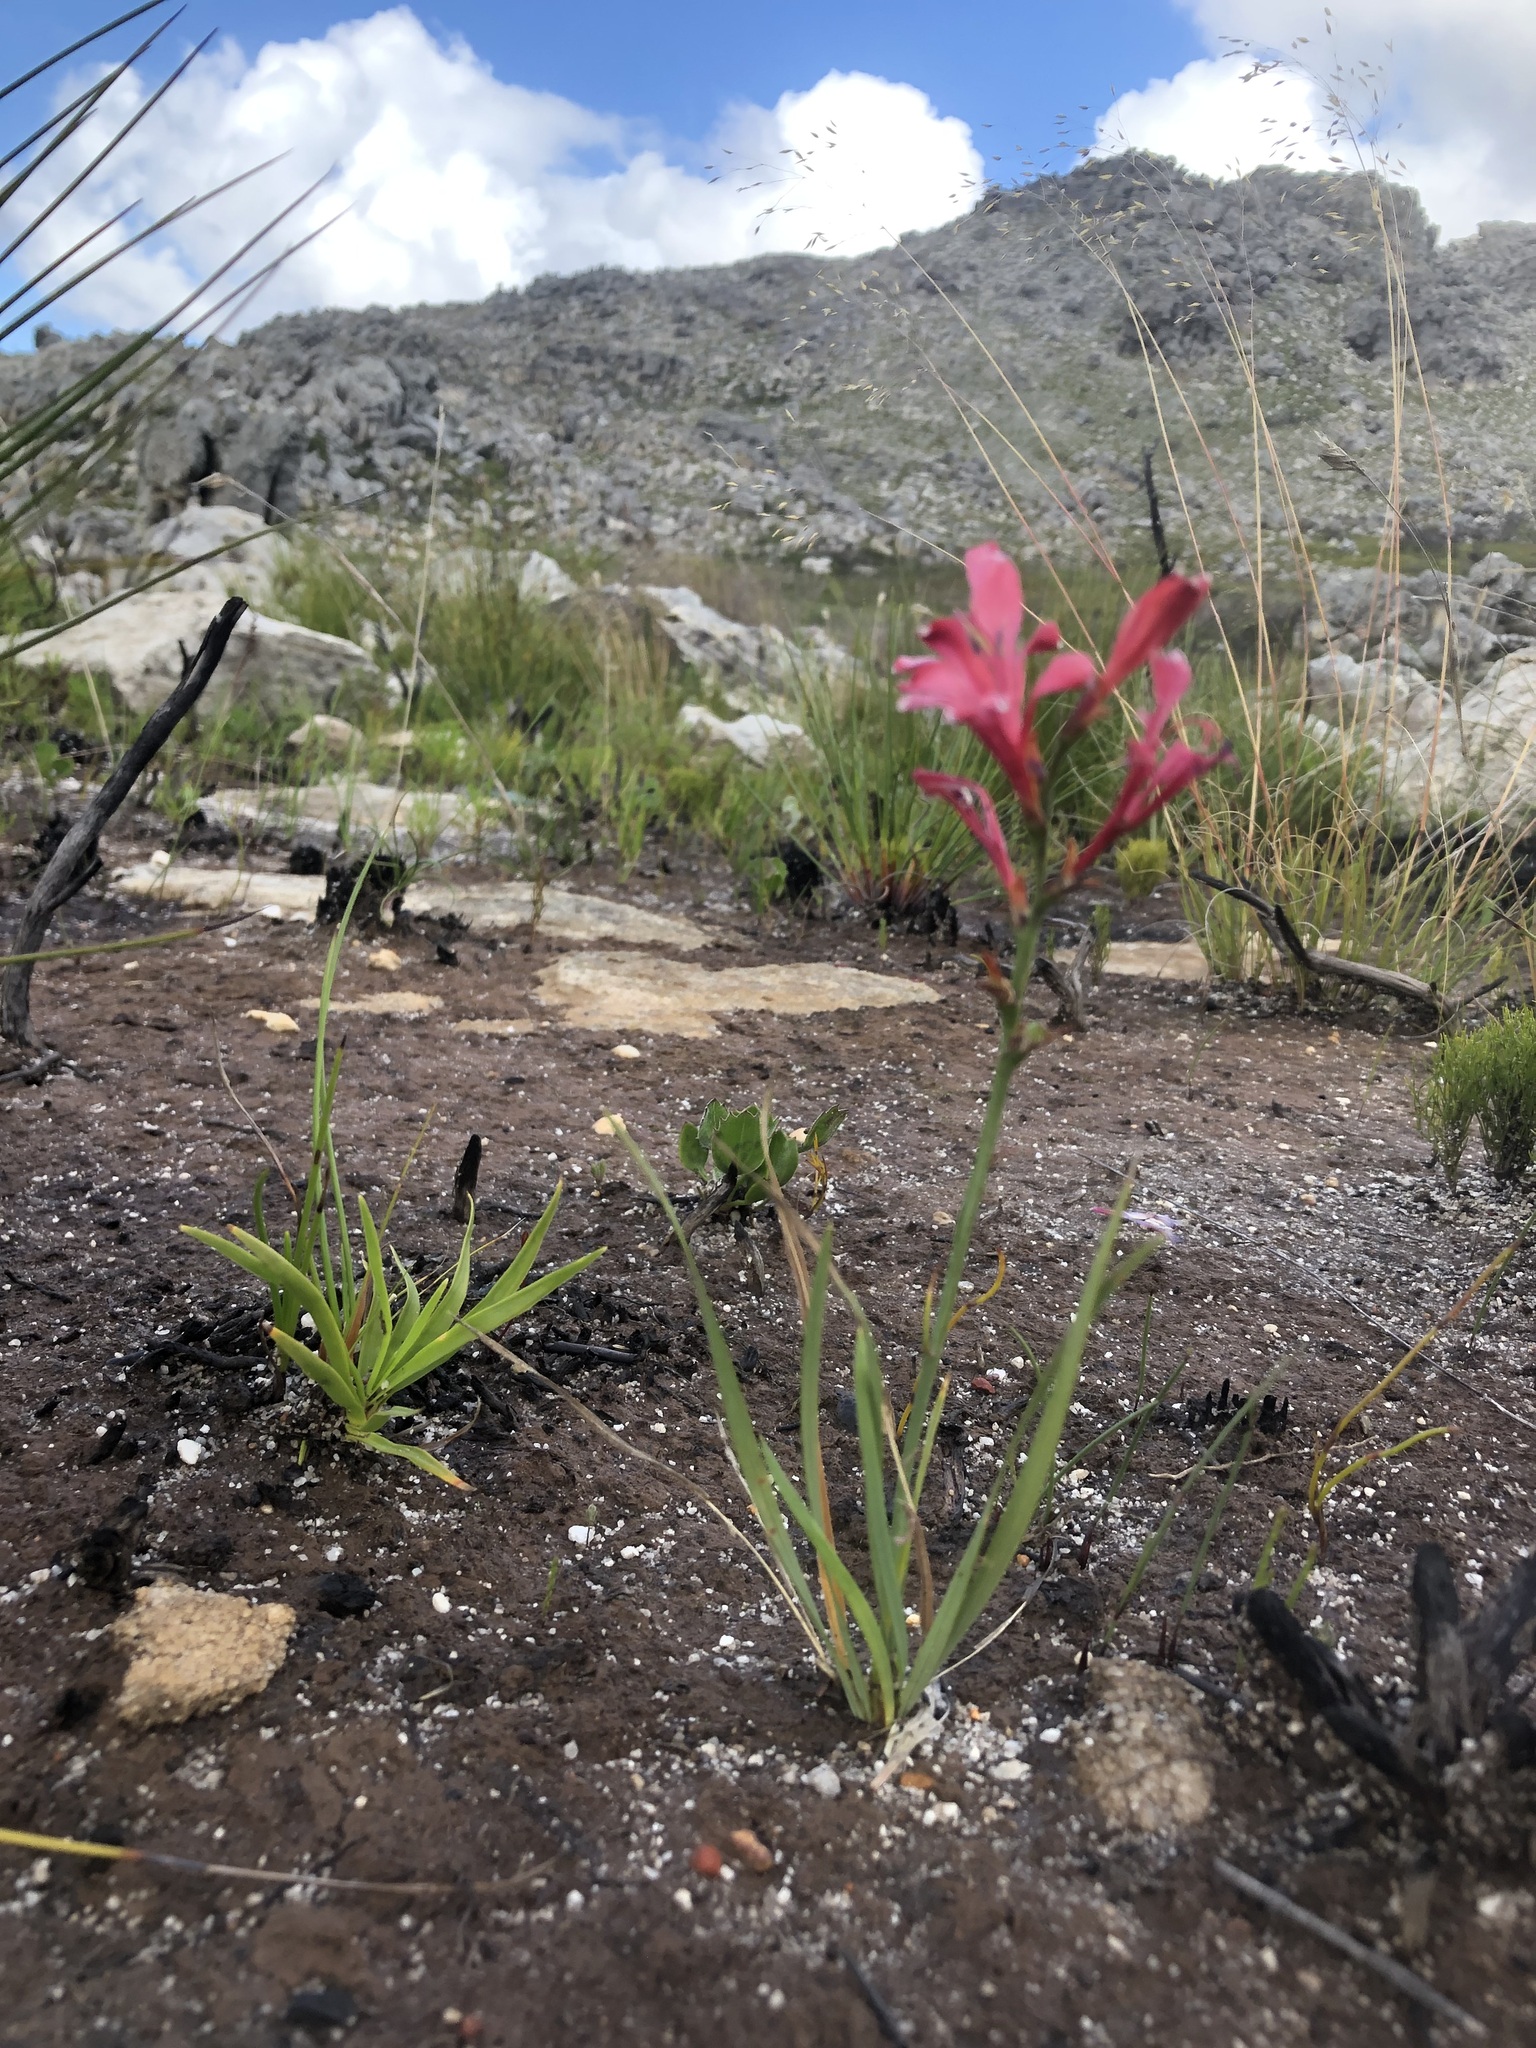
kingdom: Plantae
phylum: Tracheophyta
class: Liliopsida
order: Asparagales
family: Iridaceae
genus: Tritoniopsis
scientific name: Tritoniopsis lata
